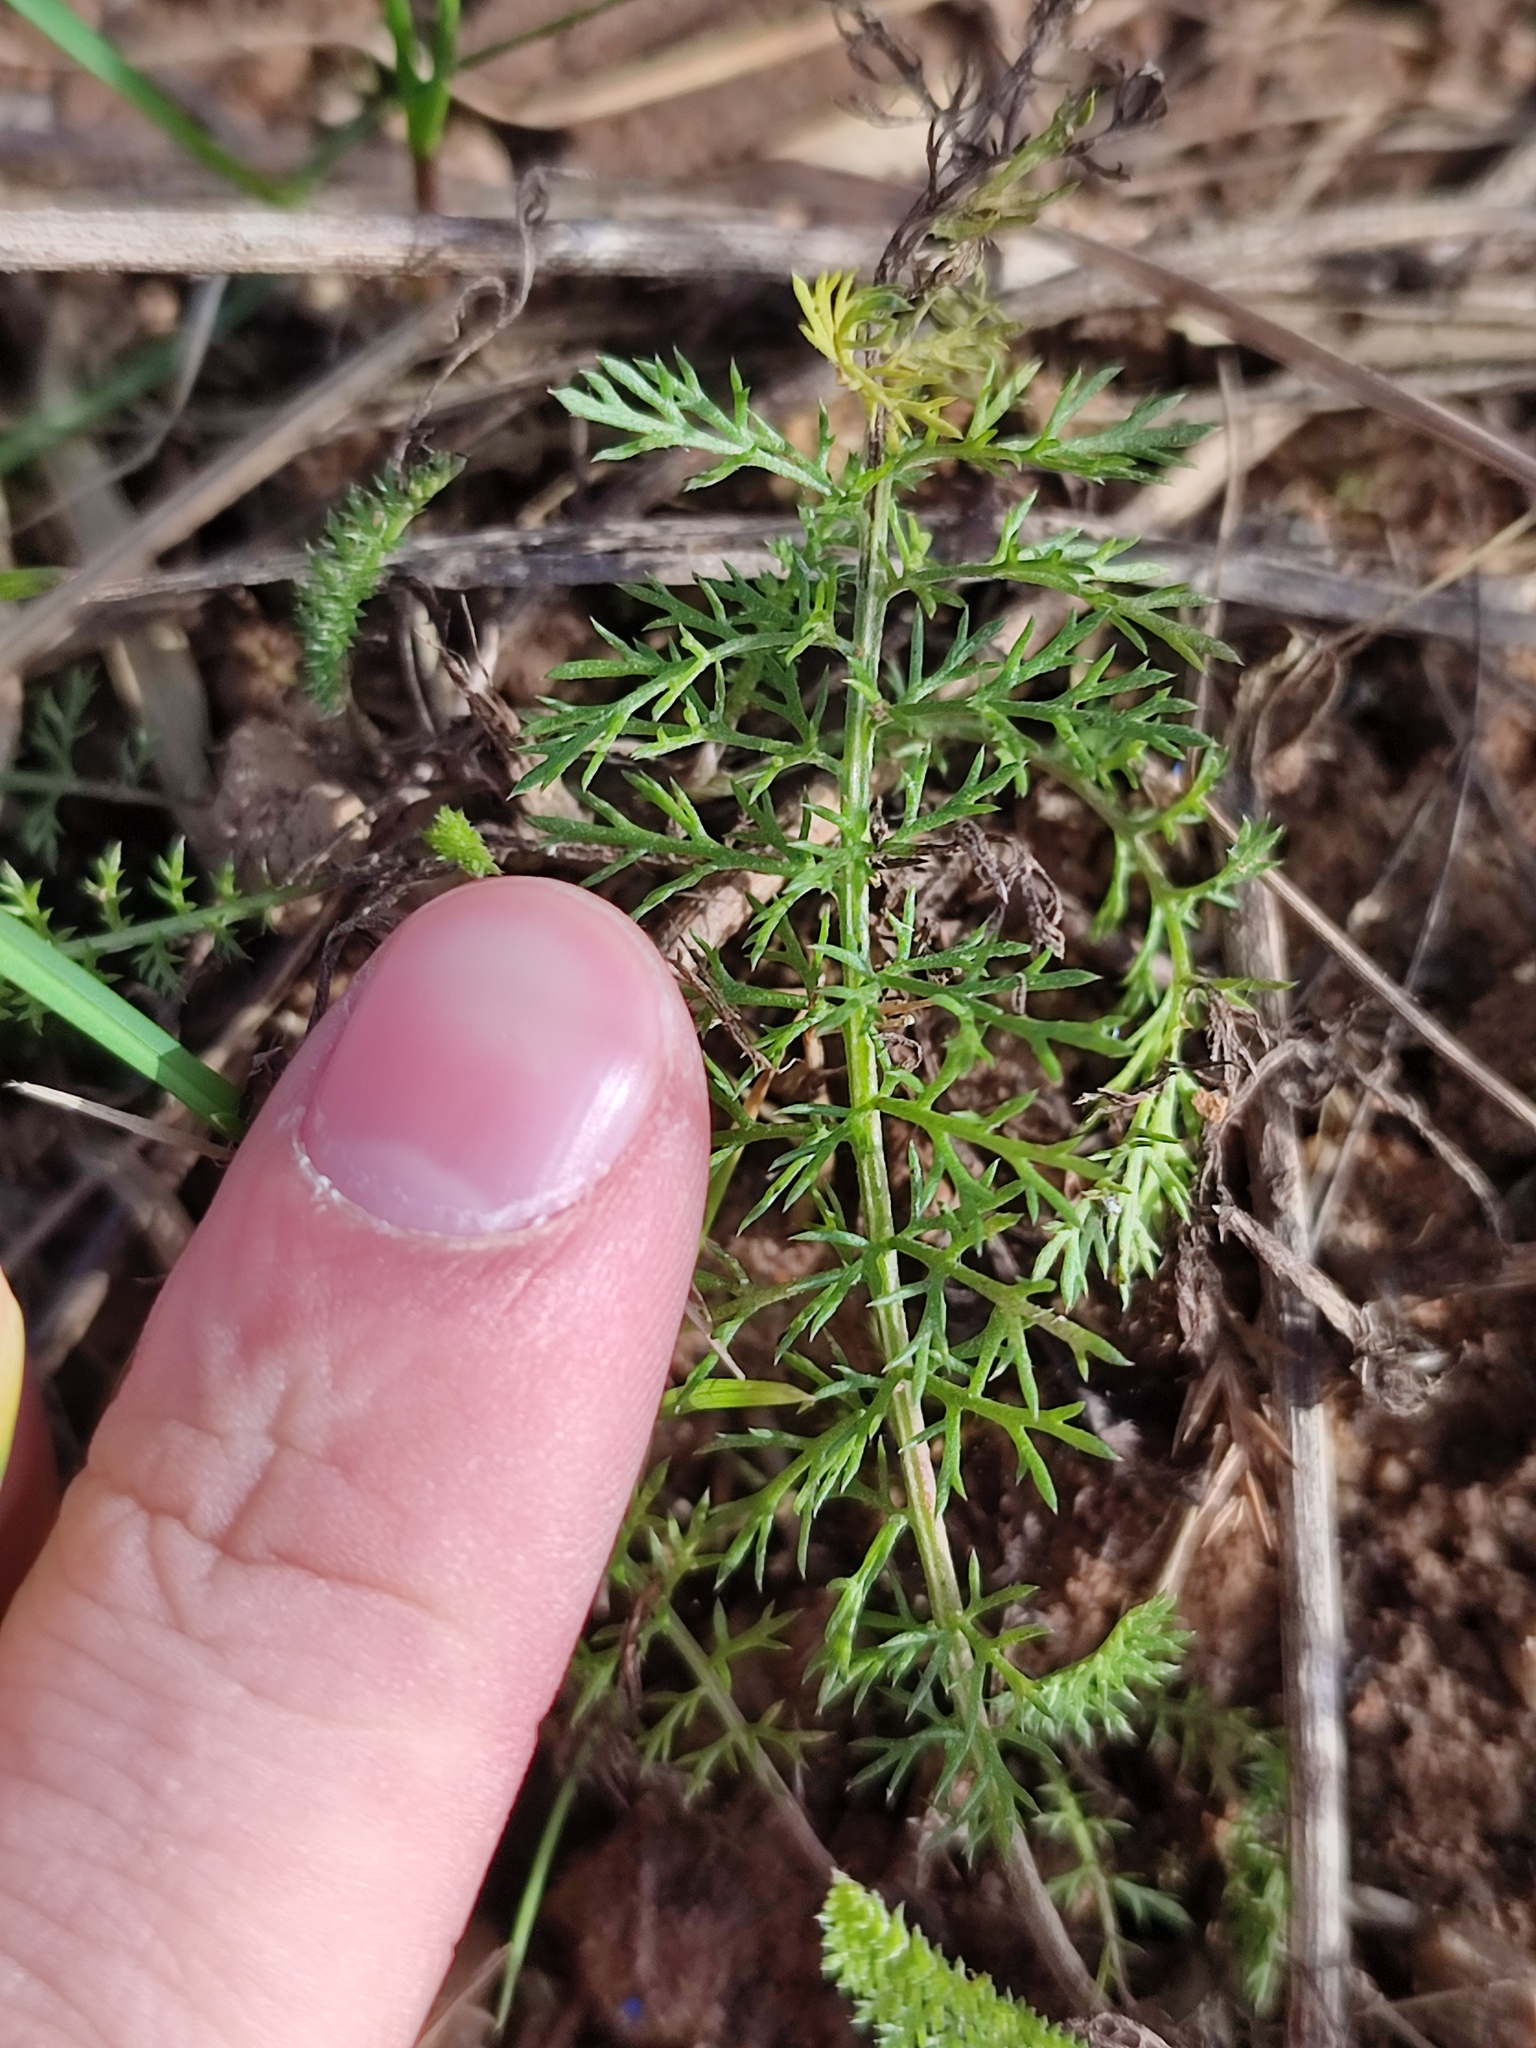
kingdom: Plantae
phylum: Tracheophyta
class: Magnoliopsida
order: Asterales
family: Asteraceae
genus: Achillea
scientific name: Achillea millefolium
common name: Yarrow
